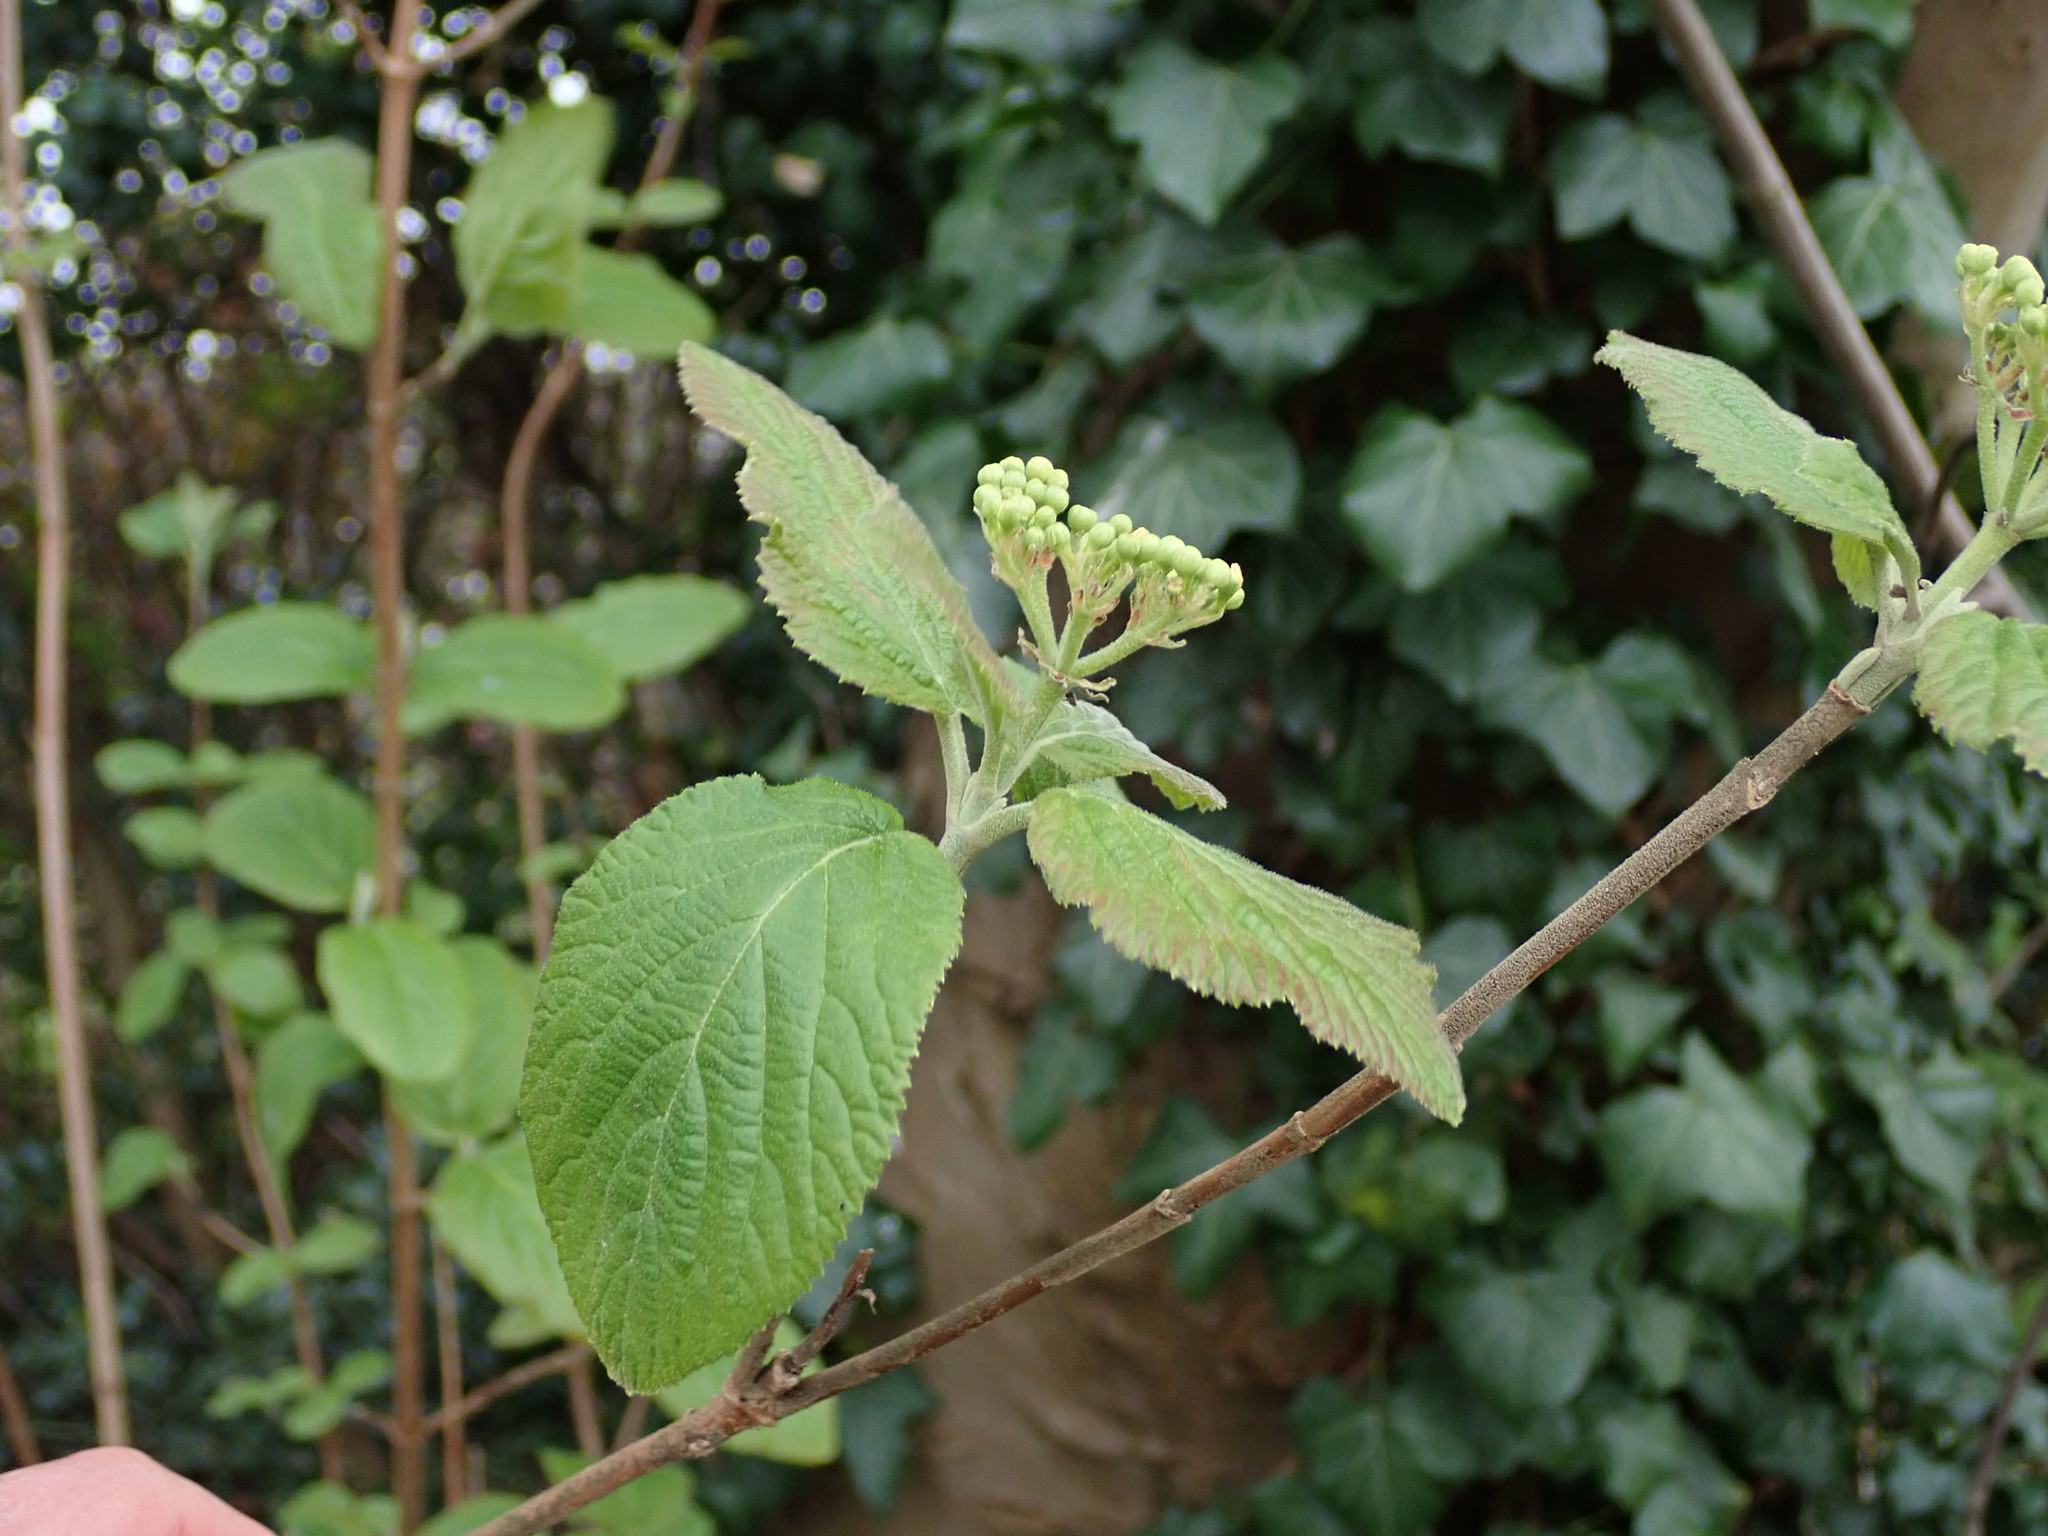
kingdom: Plantae
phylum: Tracheophyta
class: Magnoliopsida
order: Dipsacales
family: Viburnaceae
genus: Viburnum
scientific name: Viburnum lantana
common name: Wayfaring tree
